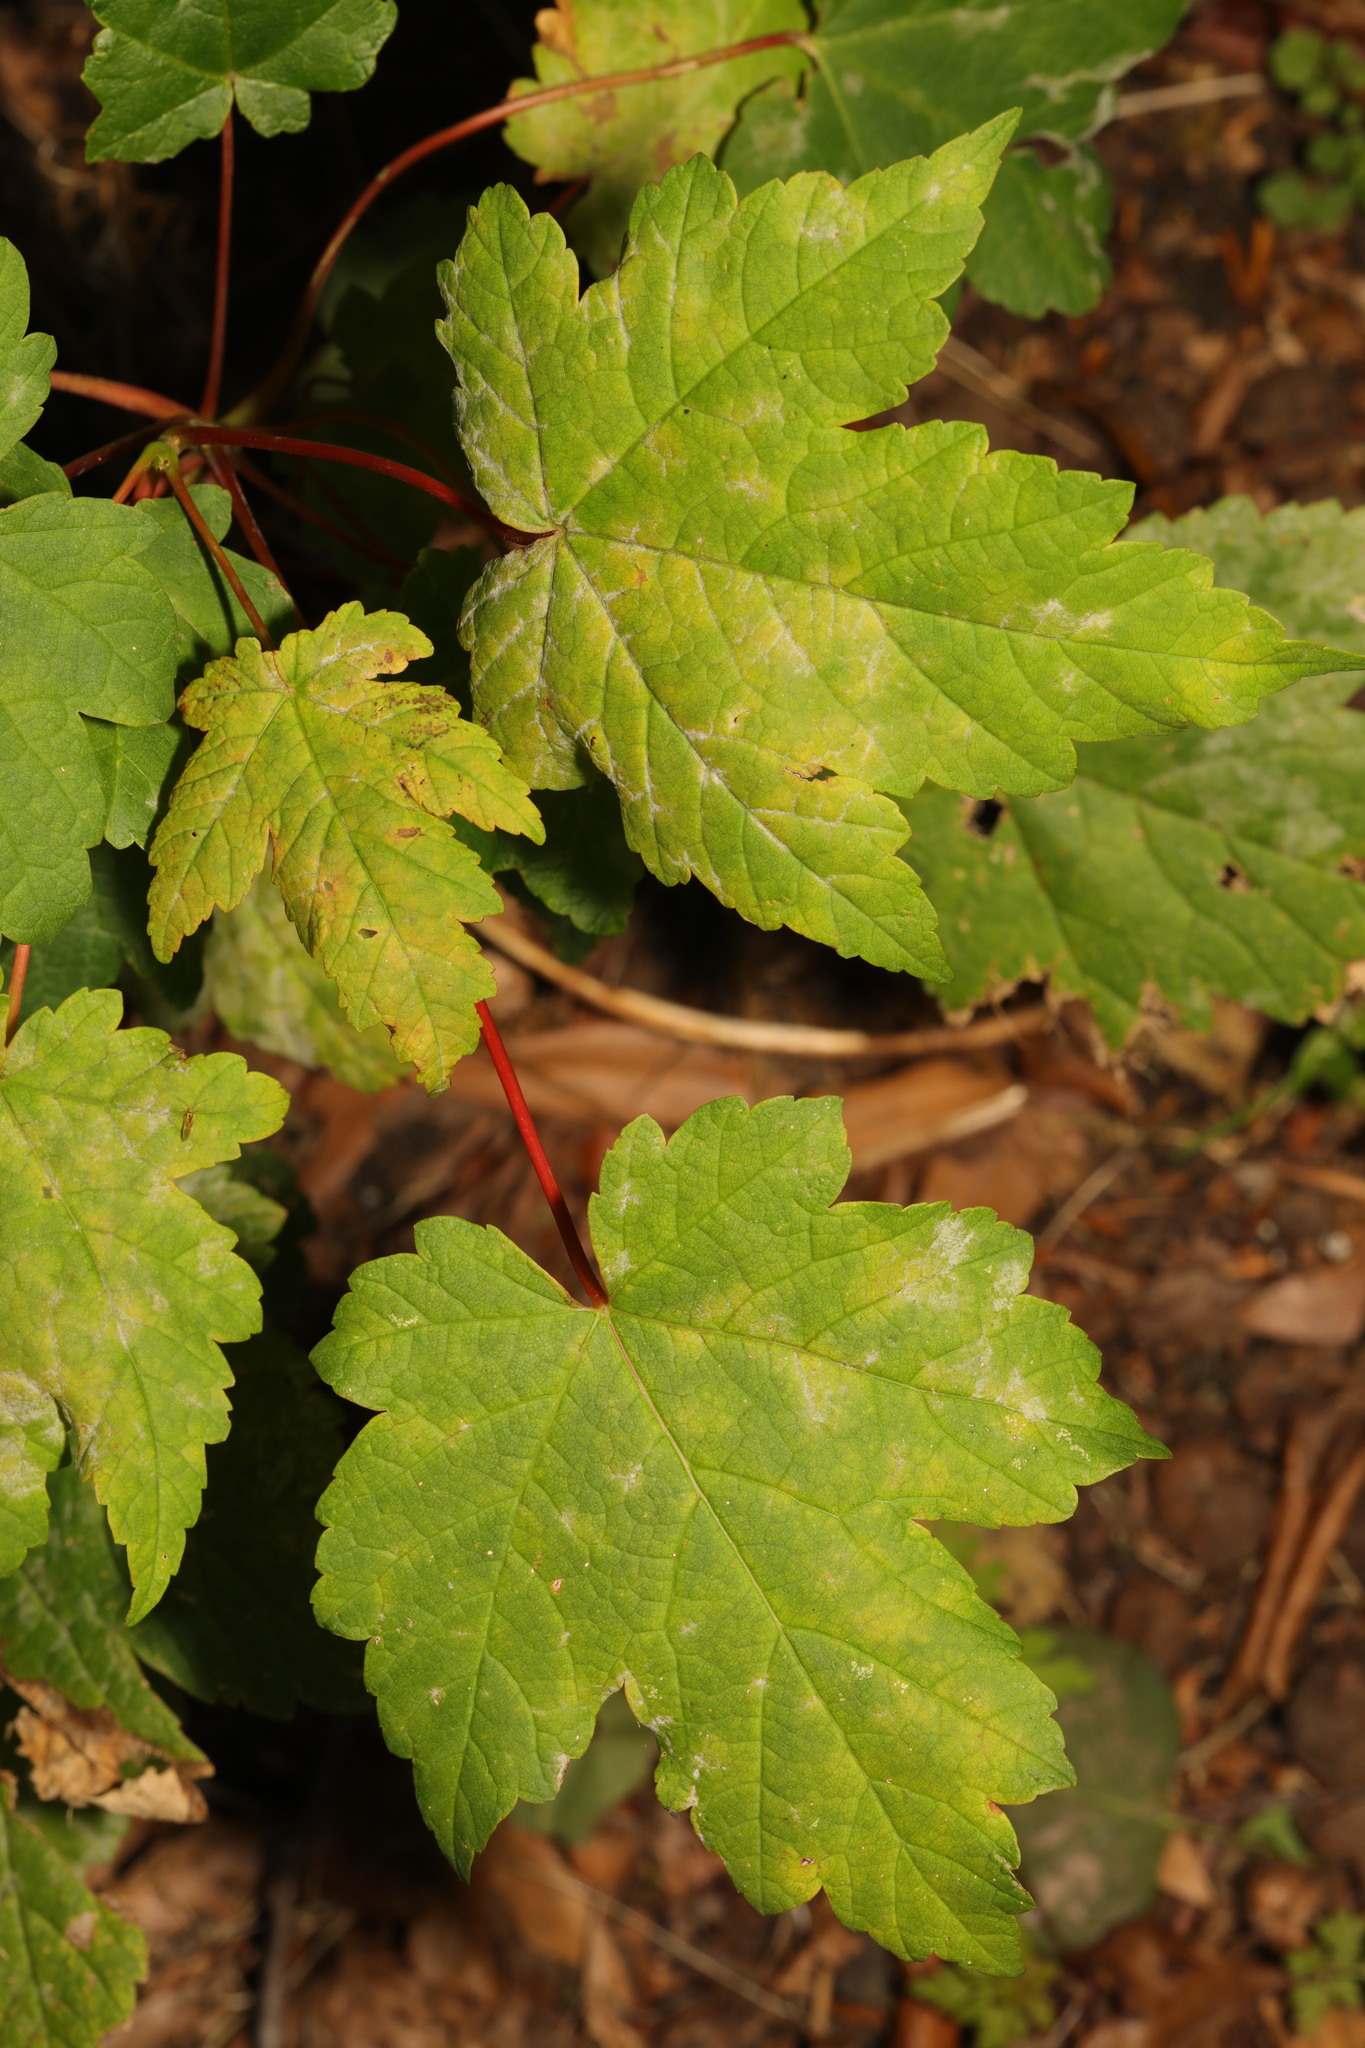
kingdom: Plantae
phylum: Tracheophyta
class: Magnoliopsida
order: Sapindales
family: Sapindaceae
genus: Acer
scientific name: Acer pseudoplatanus
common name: Sycamore
